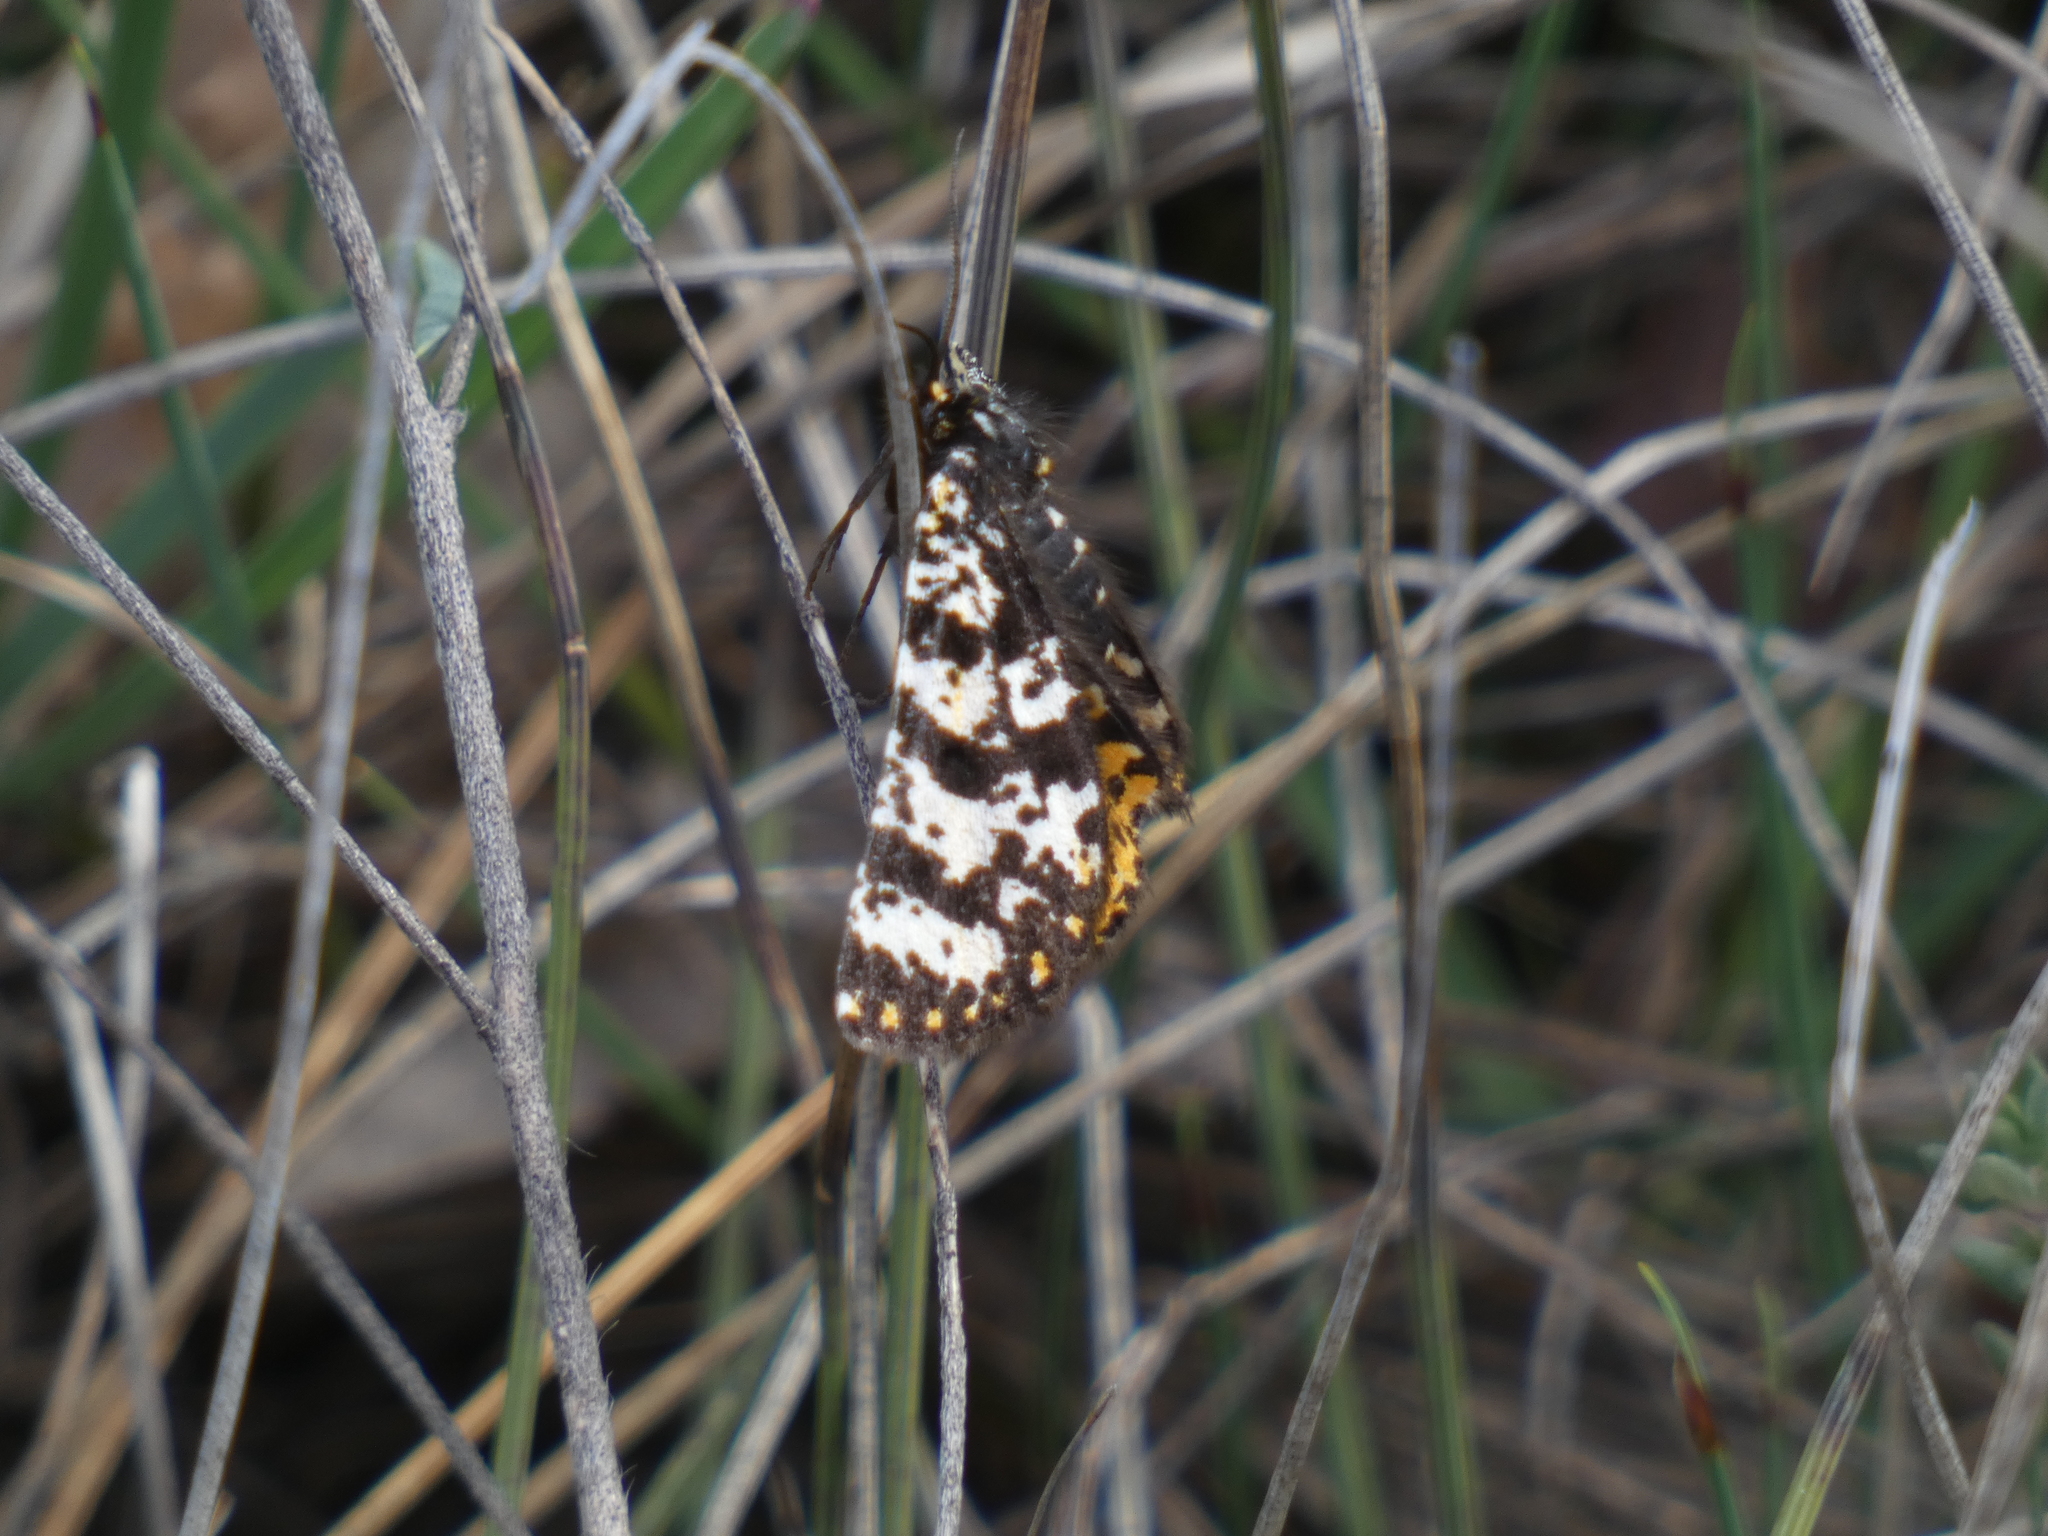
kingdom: Animalia
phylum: Arthropoda
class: Insecta
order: Lepidoptera
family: Geometridae
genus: Eurranthis
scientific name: Eurranthis plummistaria
